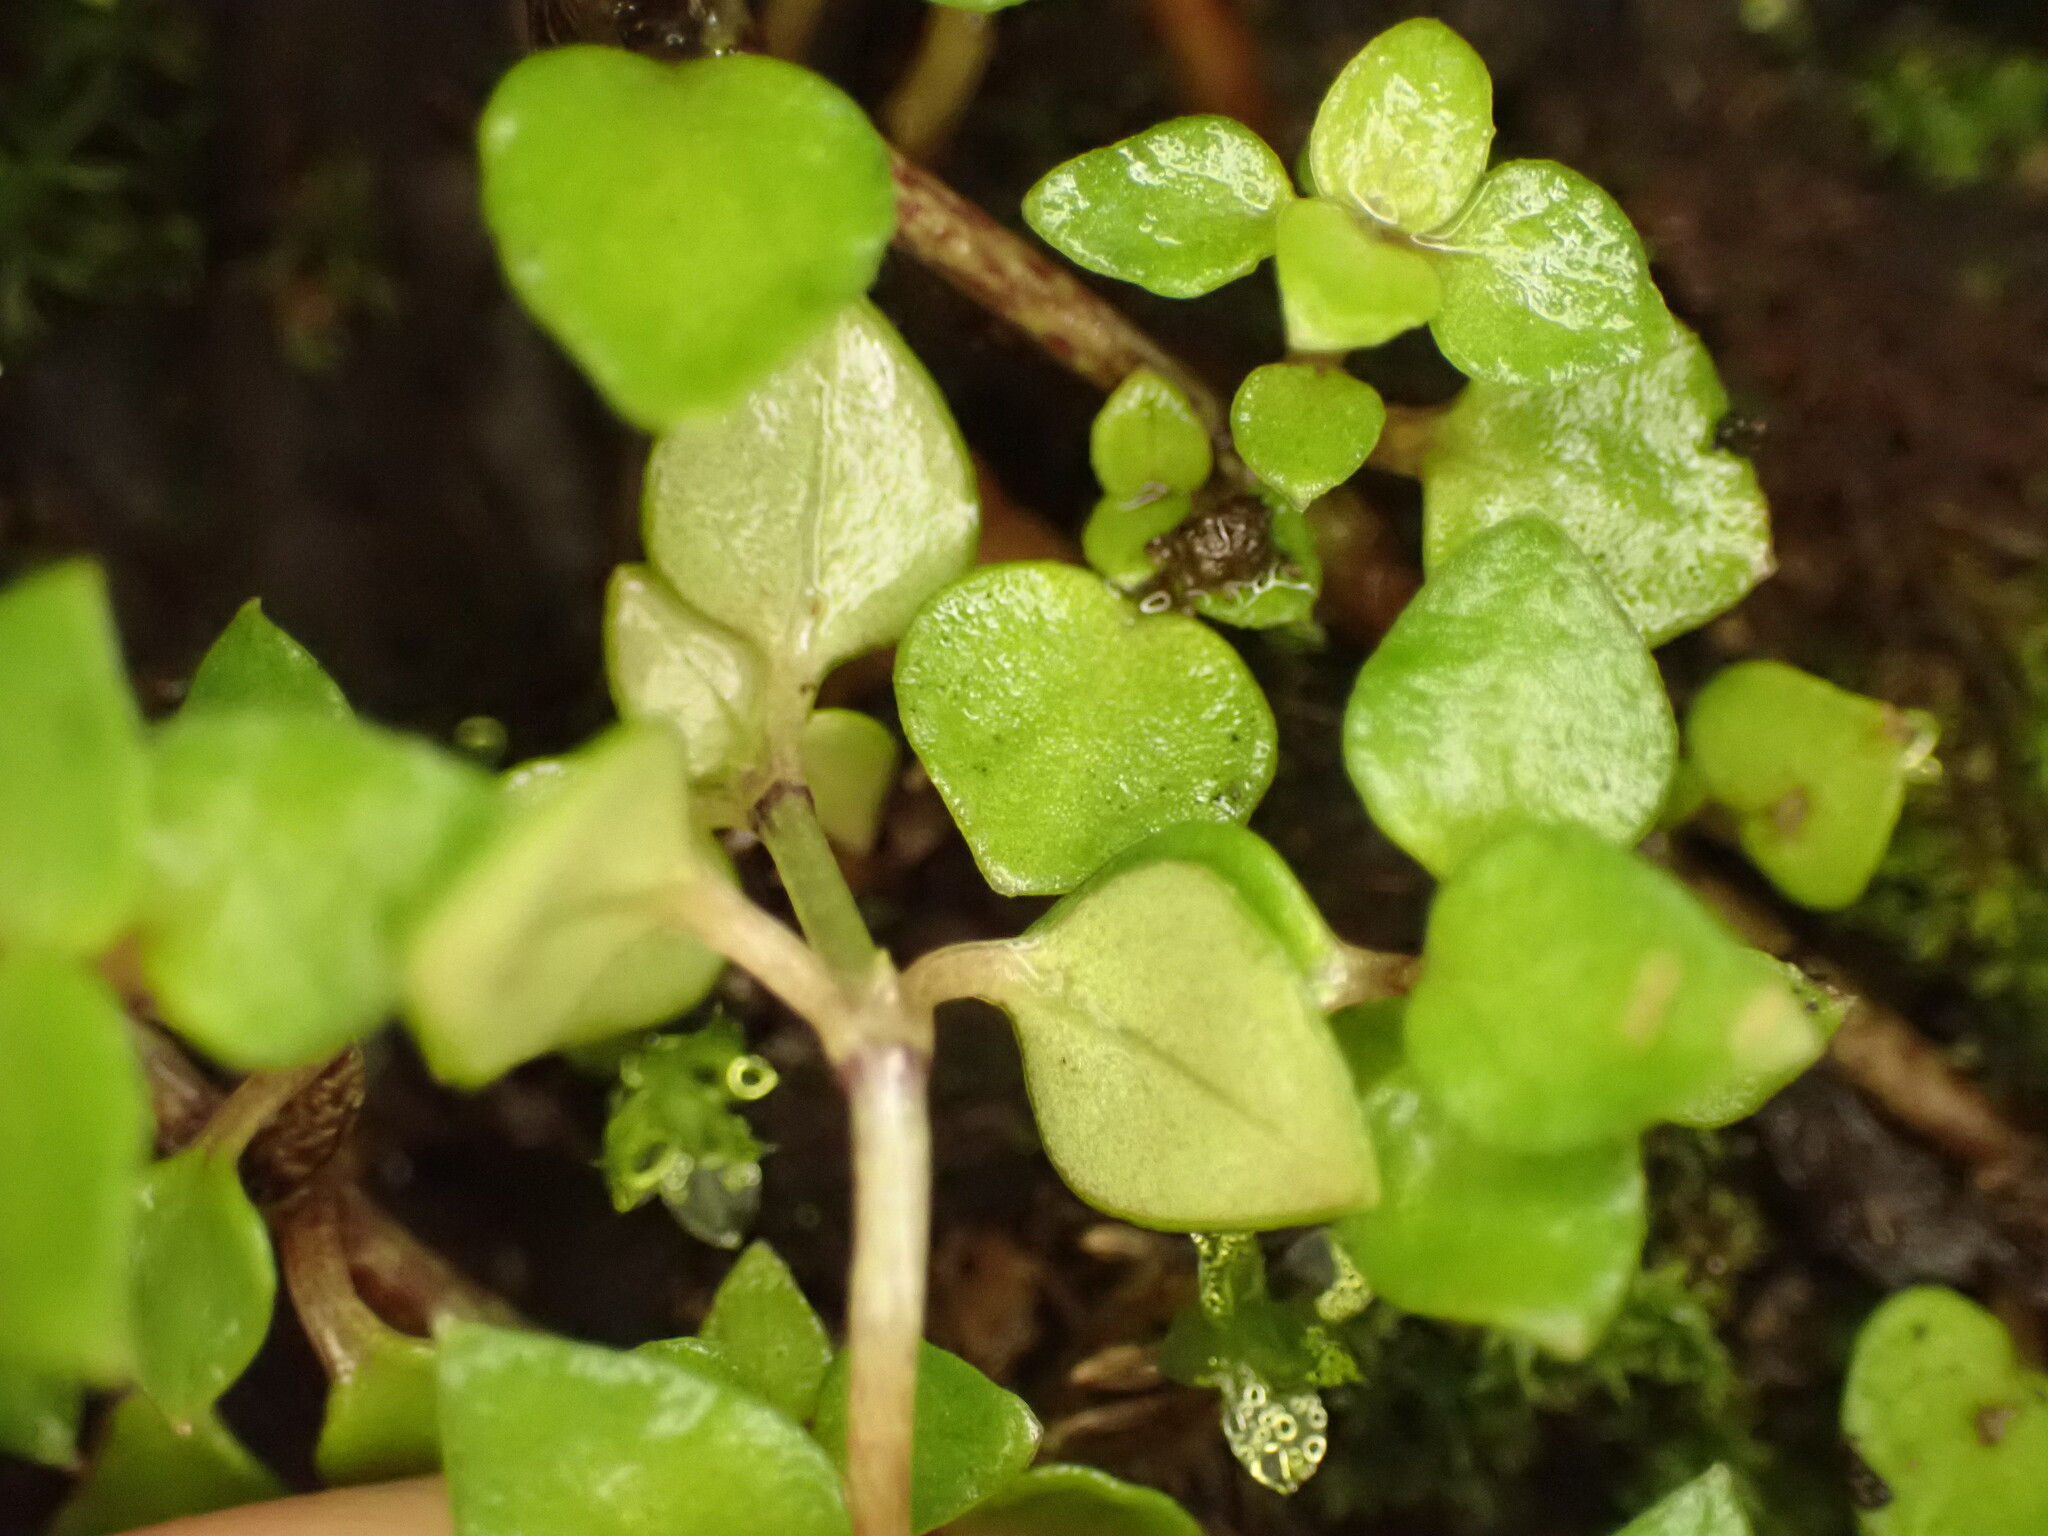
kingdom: Plantae
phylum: Tracheophyta
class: Magnoliopsida
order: Gentianales
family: Rubiaceae
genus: Nertera
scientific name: Nertera granadensis
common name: Beadplant
